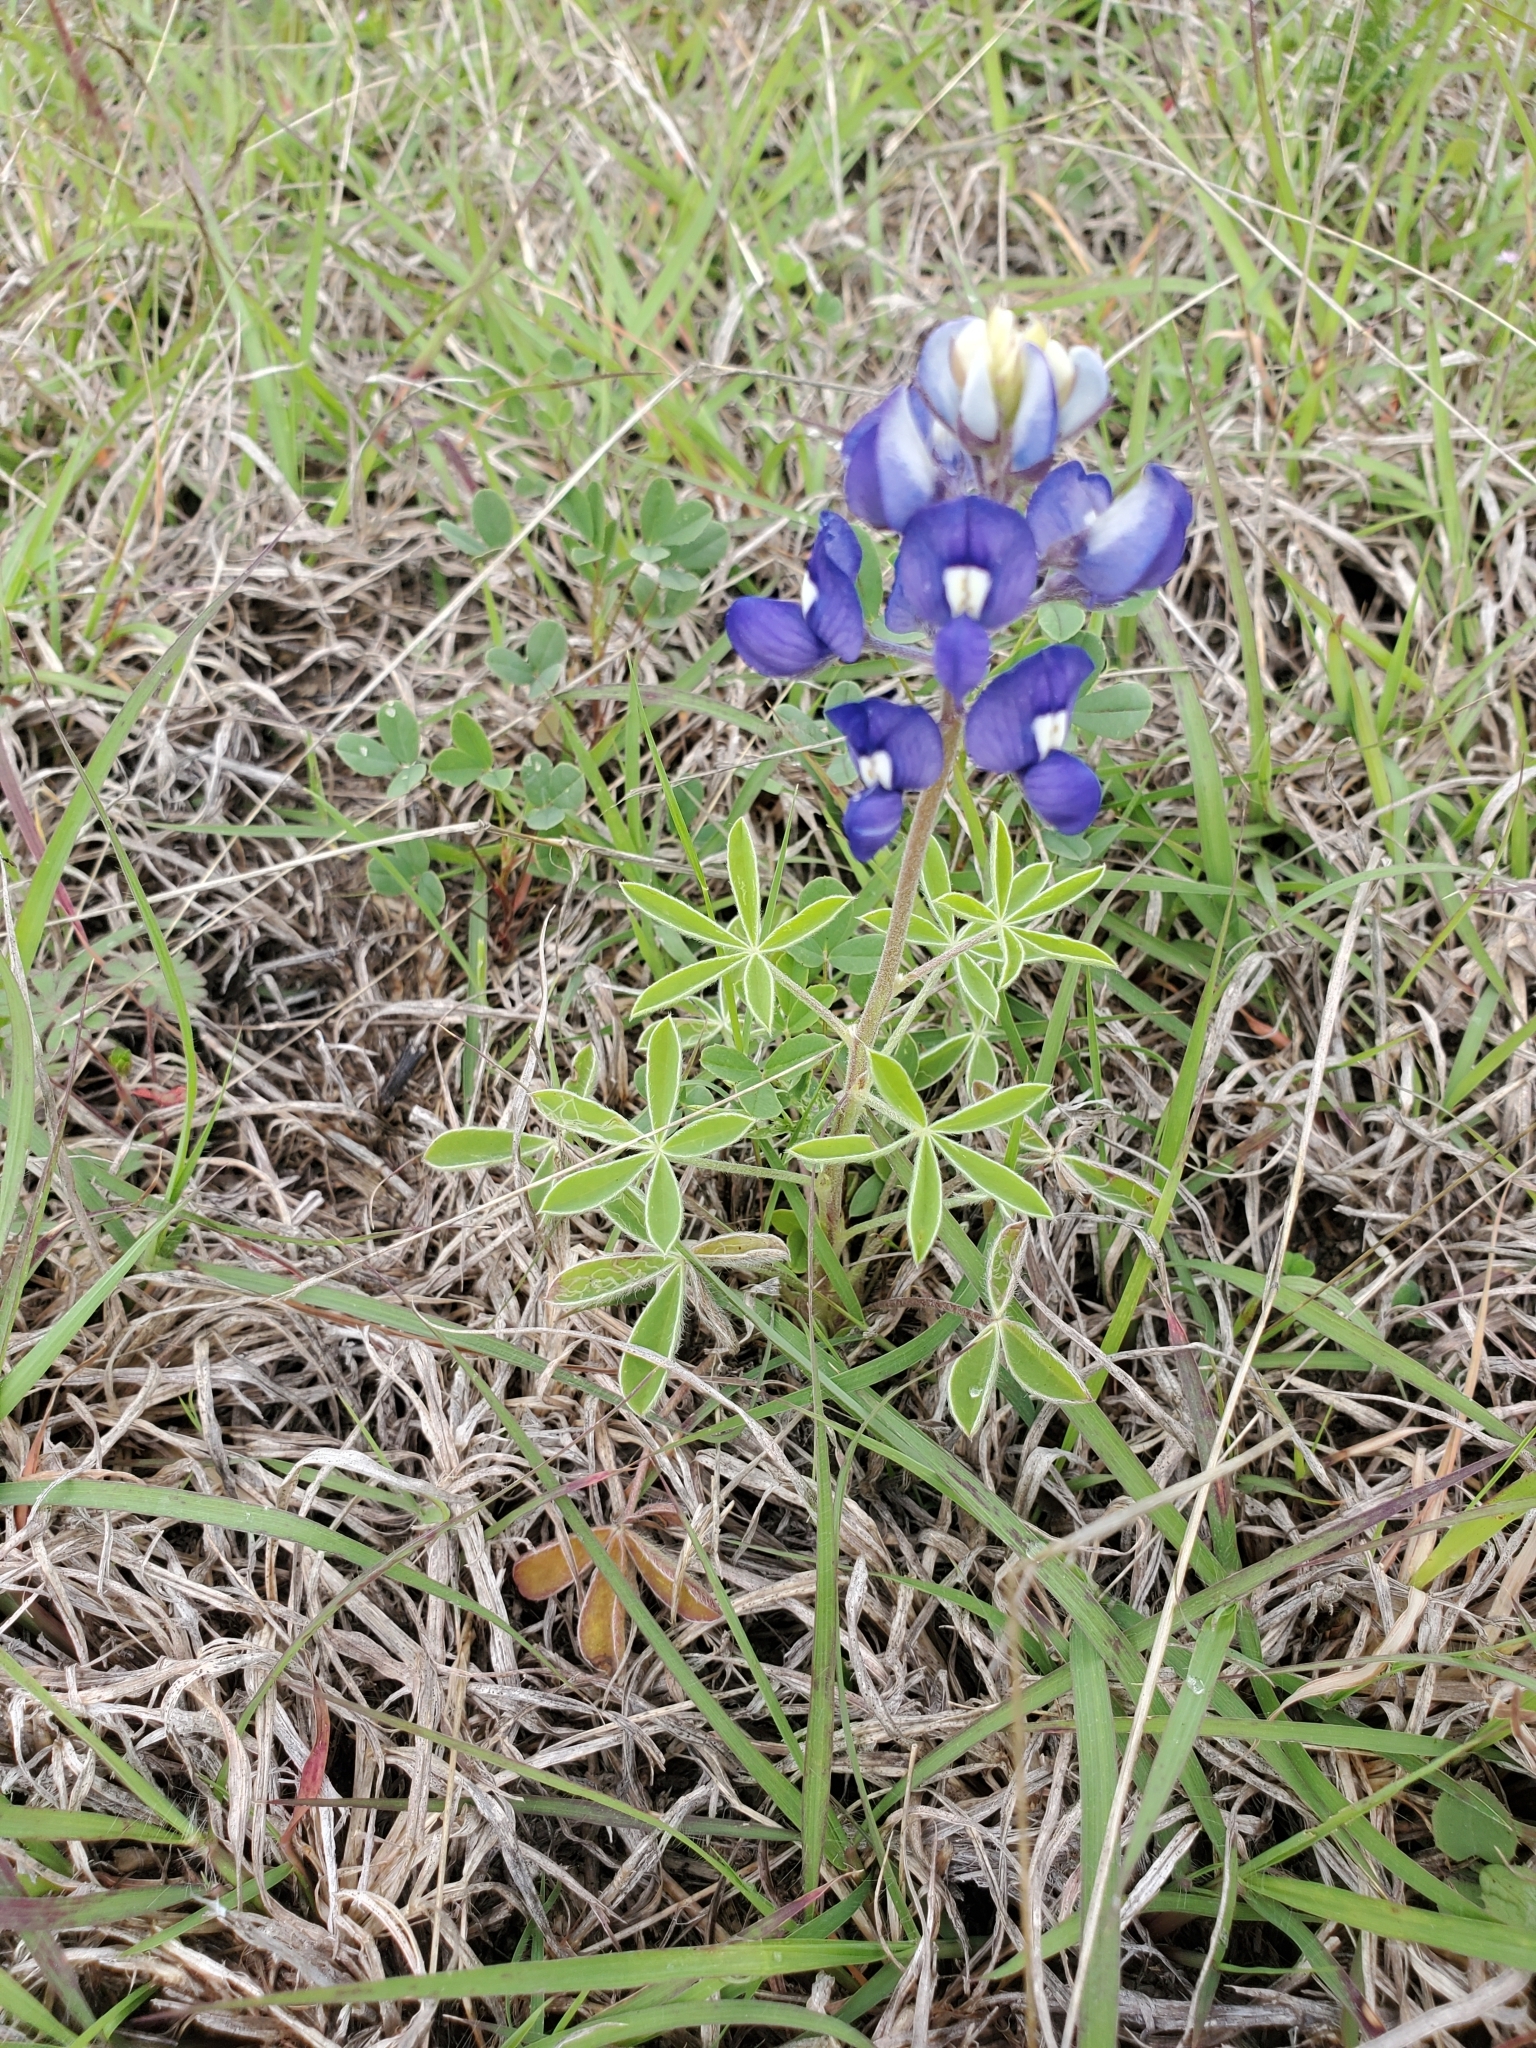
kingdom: Plantae
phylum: Tracheophyta
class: Magnoliopsida
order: Fabales
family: Fabaceae
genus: Lupinus
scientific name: Lupinus texensis
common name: Texas bluebonnet
